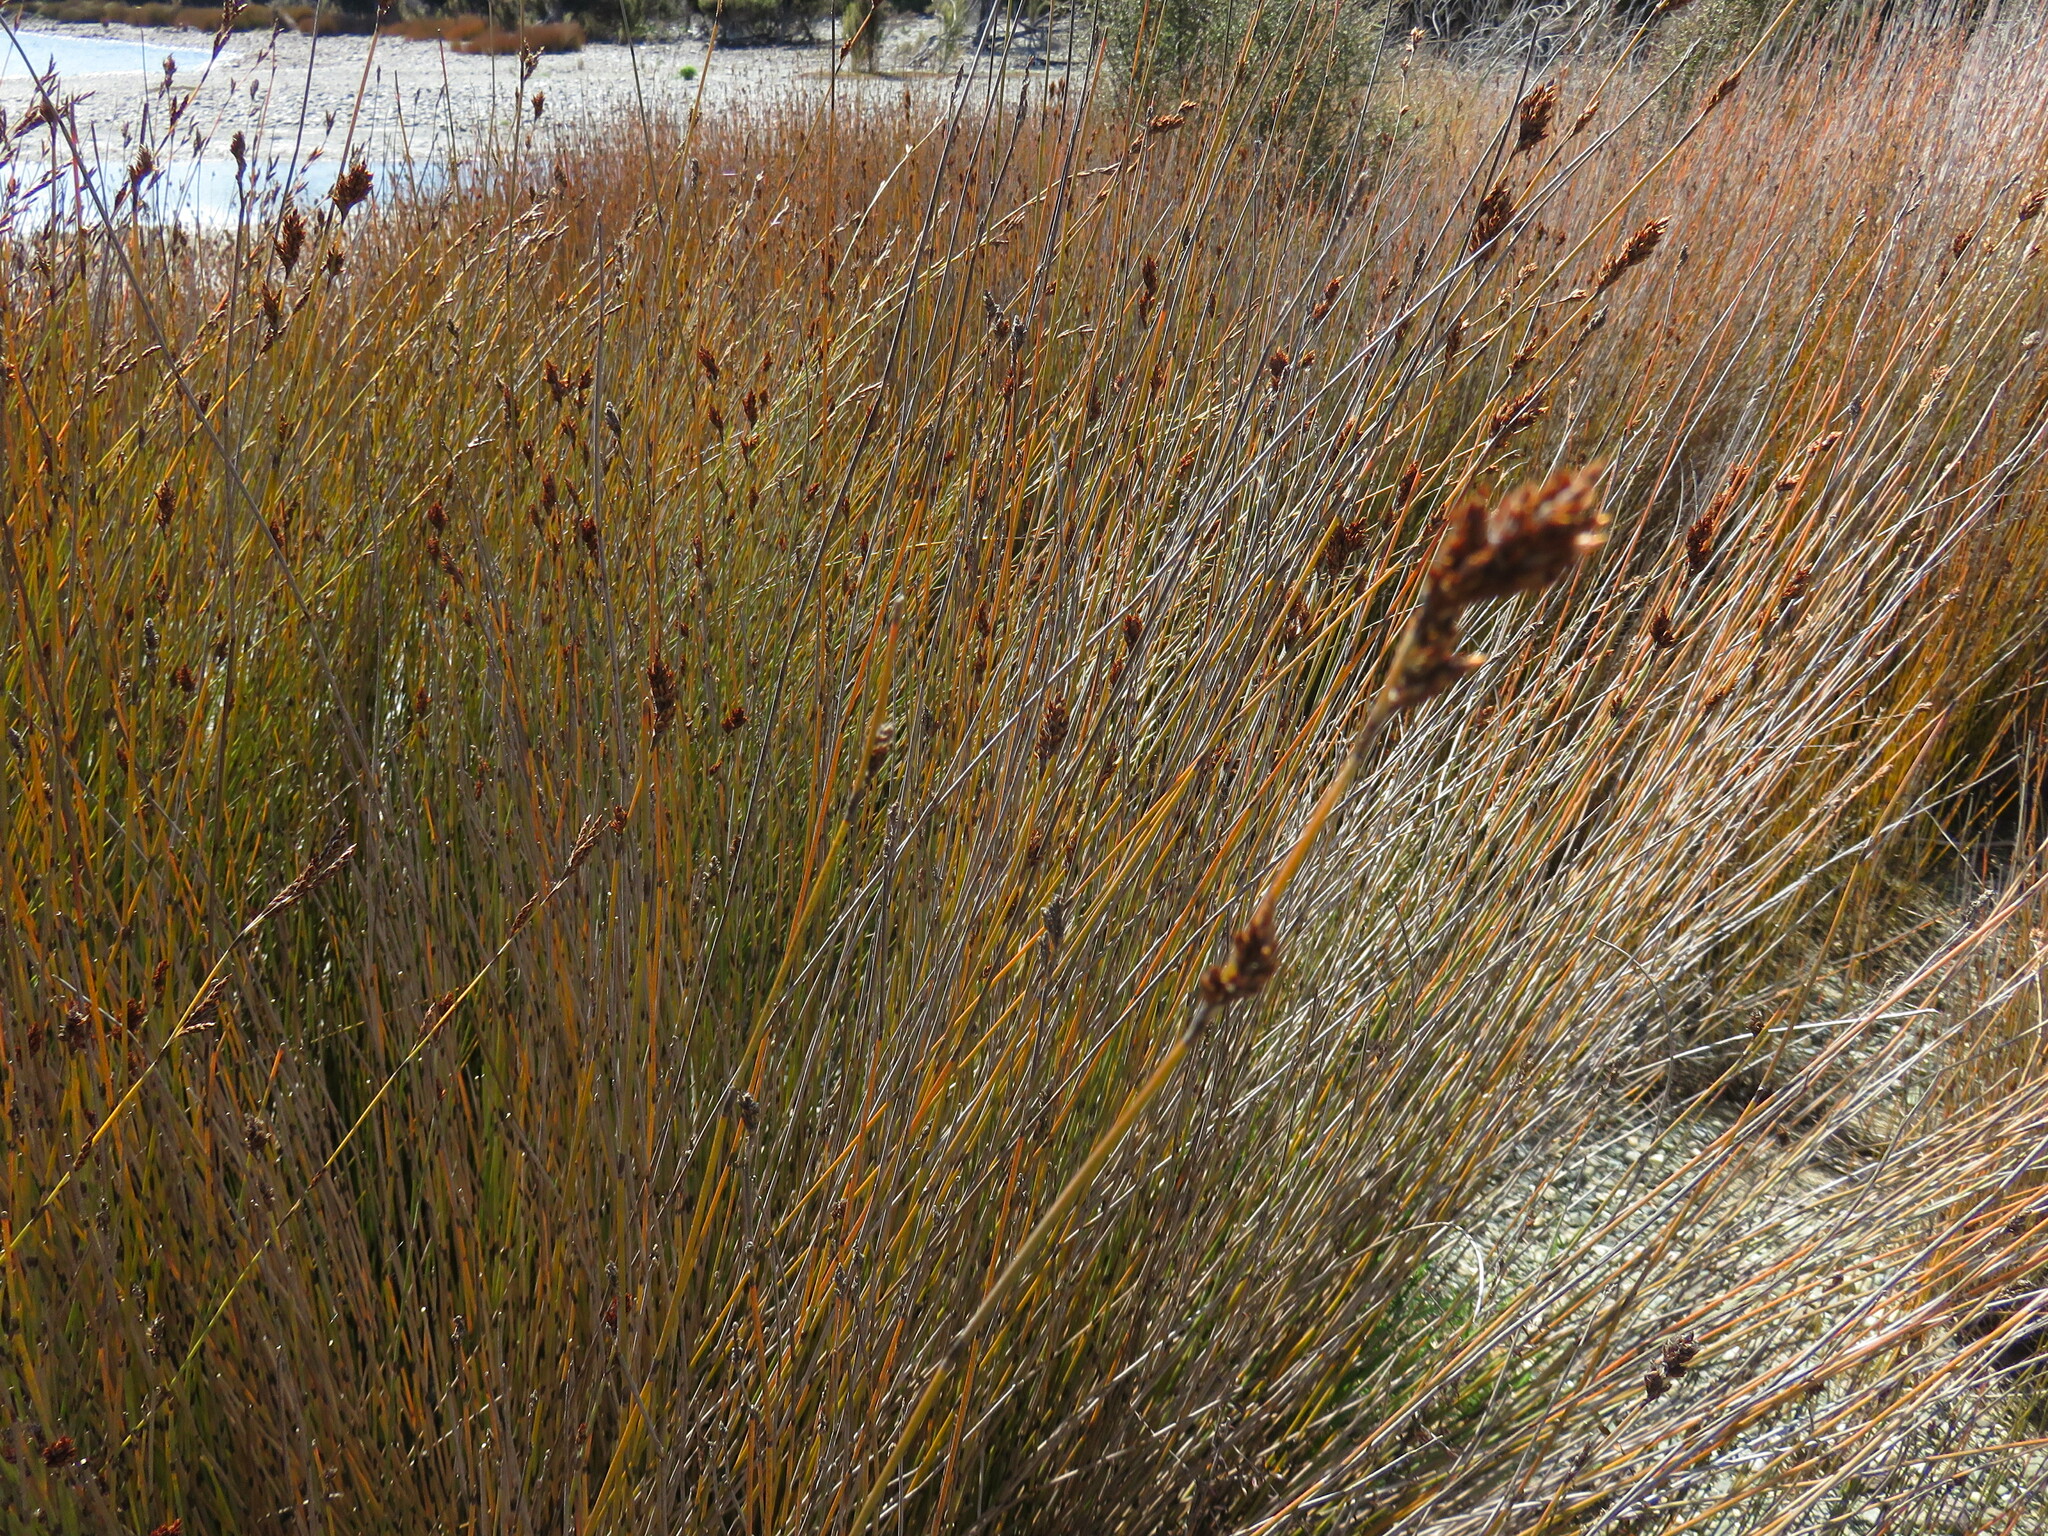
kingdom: Plantae
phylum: Tracheophyta
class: Liliopsida
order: Poales
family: Restionaceae
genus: Apodasmia
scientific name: Apodasmia similis
